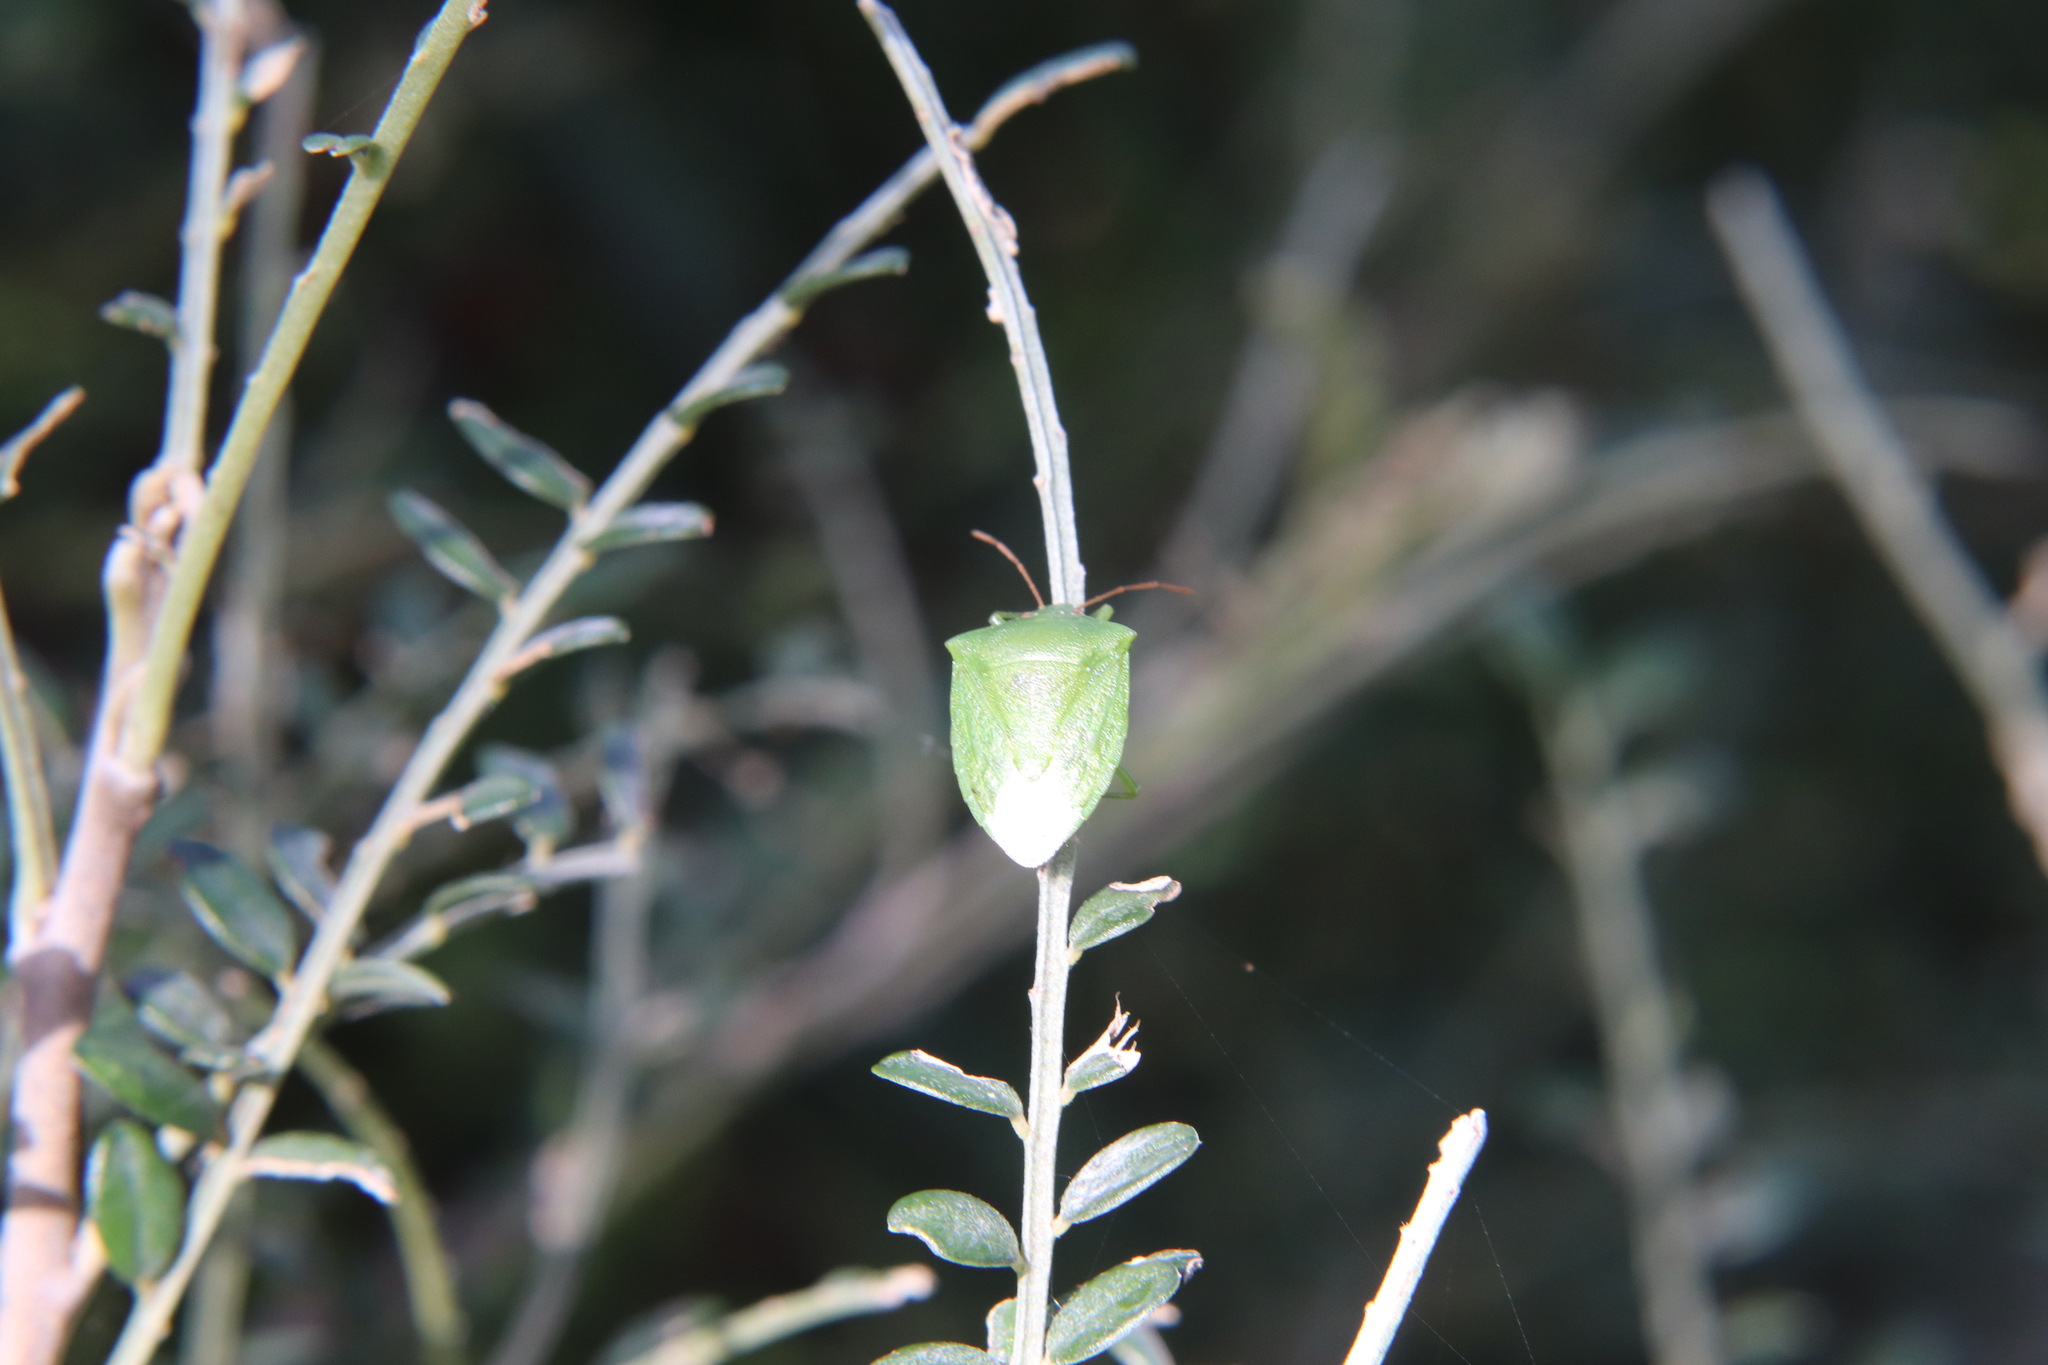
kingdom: Animalia
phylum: Arthropoda
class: Insecta
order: Hemiptera
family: Pentatomidae
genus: Cuspicona
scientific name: Cuspicona simplex
